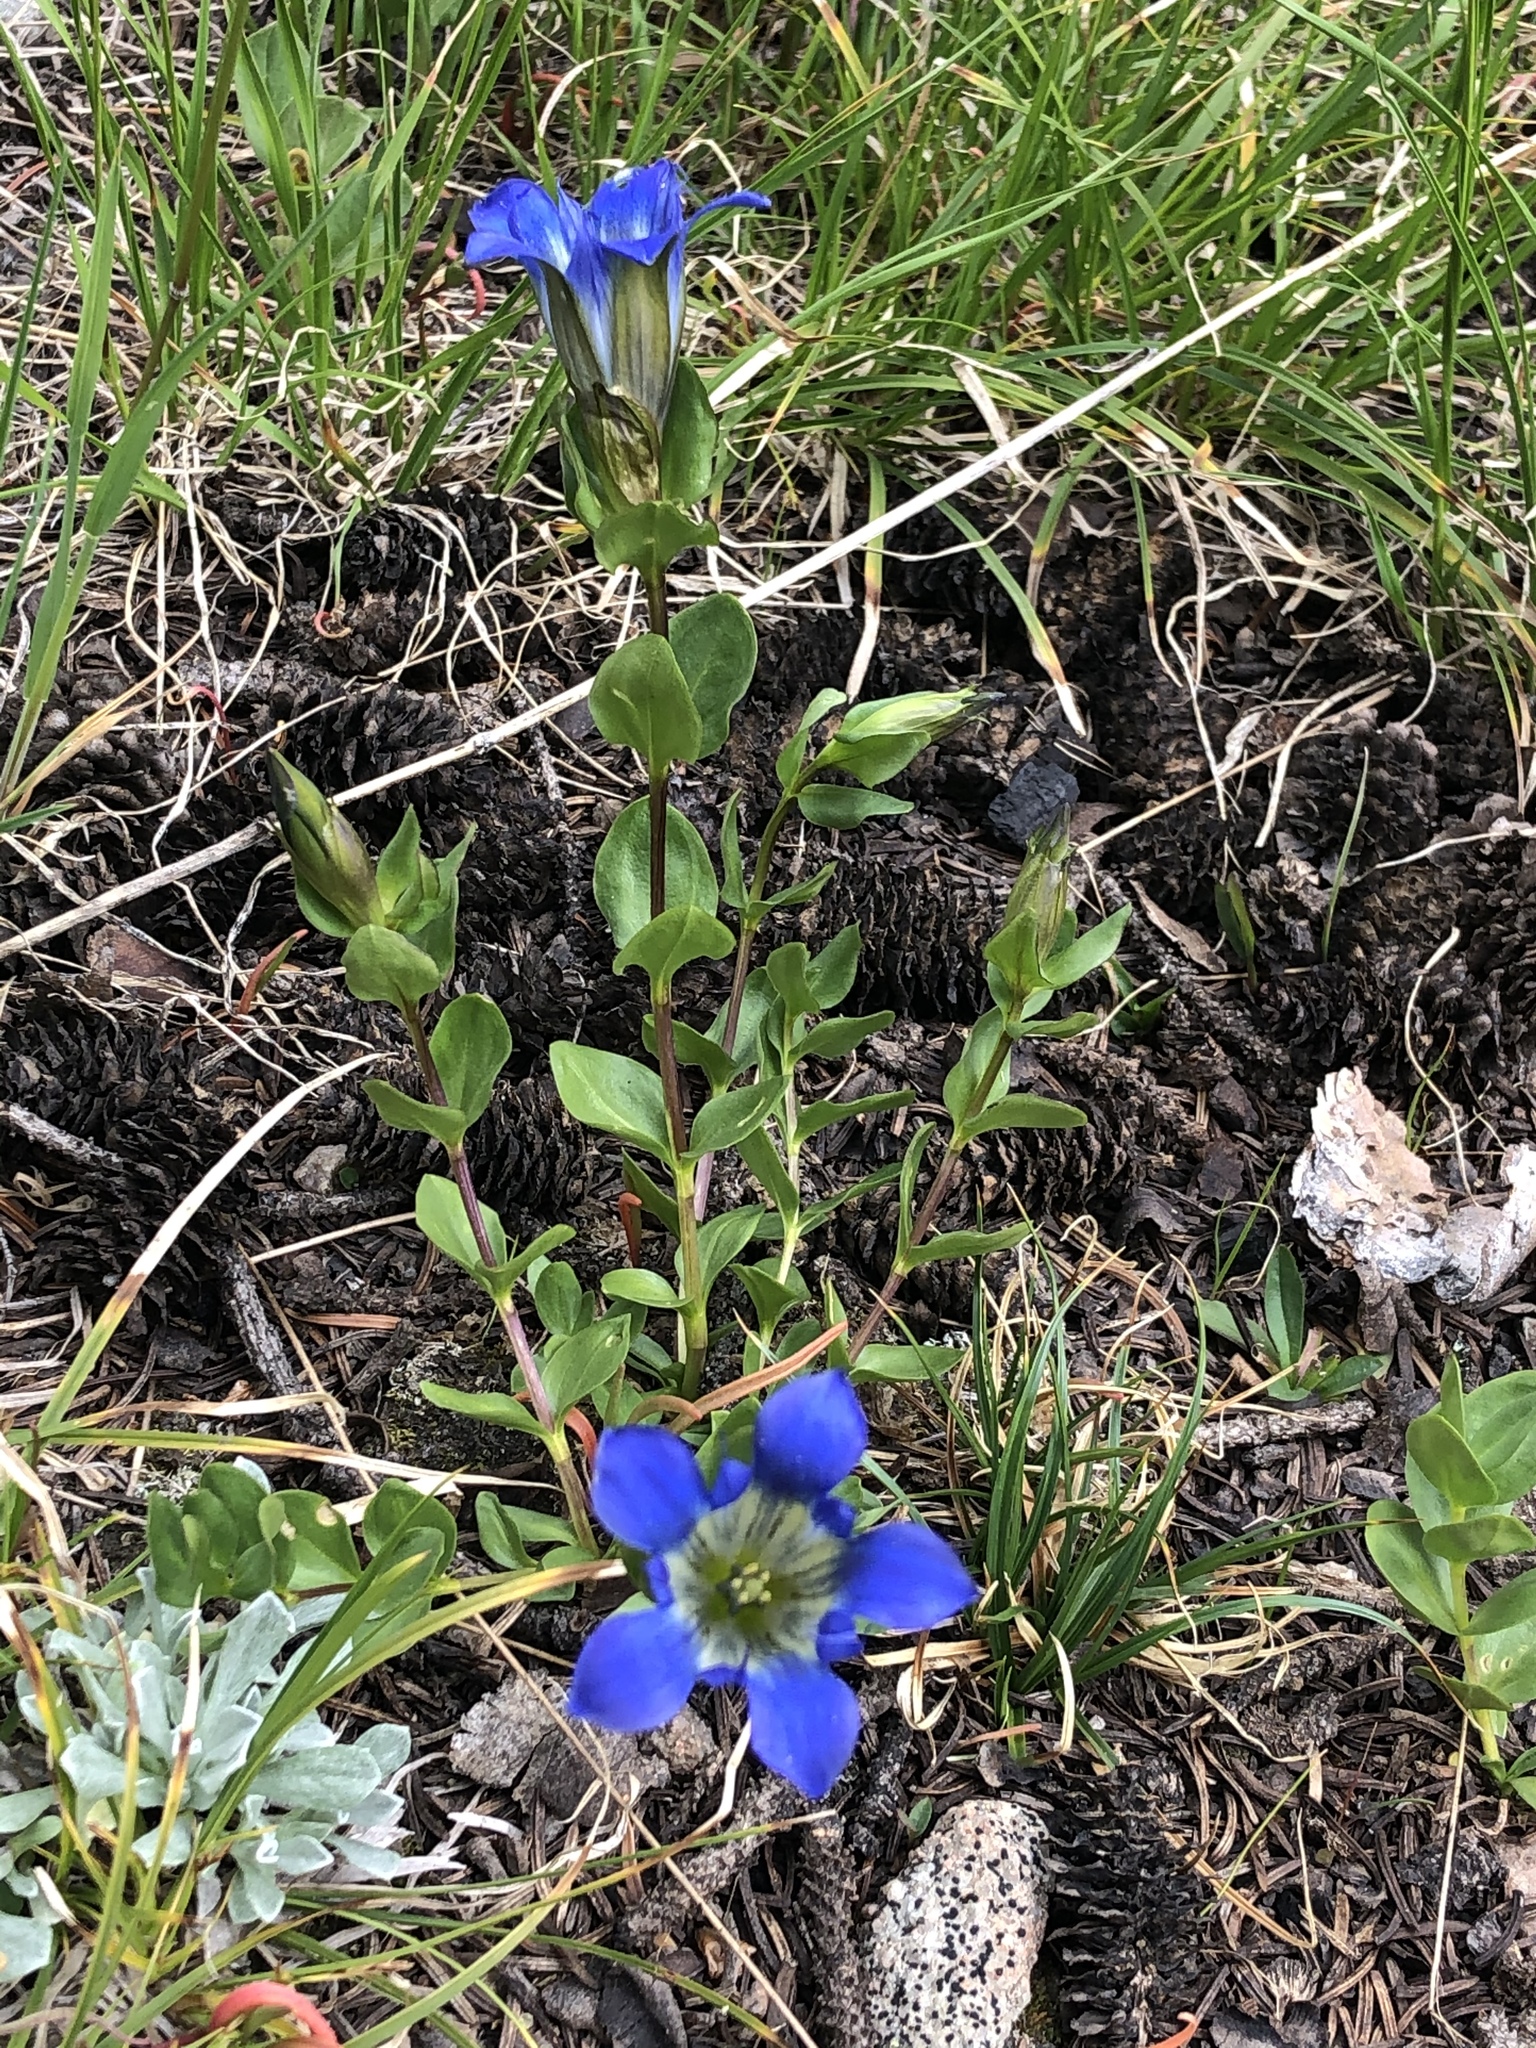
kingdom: Plantae
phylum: Tracheophyta
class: Magnoliopsida
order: Gentianales
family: Gentianaceae
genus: Gentiana
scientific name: Gentiana calycosa
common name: Rainier pleated gentian
